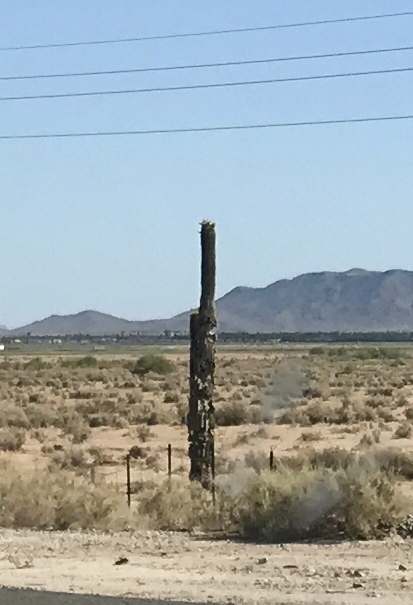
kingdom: Plantae
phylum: Tracheophyta
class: Magnoliopsida
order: Caryophyllales
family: Cactaceae
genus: Carnegiea
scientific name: Carnegiea gigantea
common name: Saguaro
